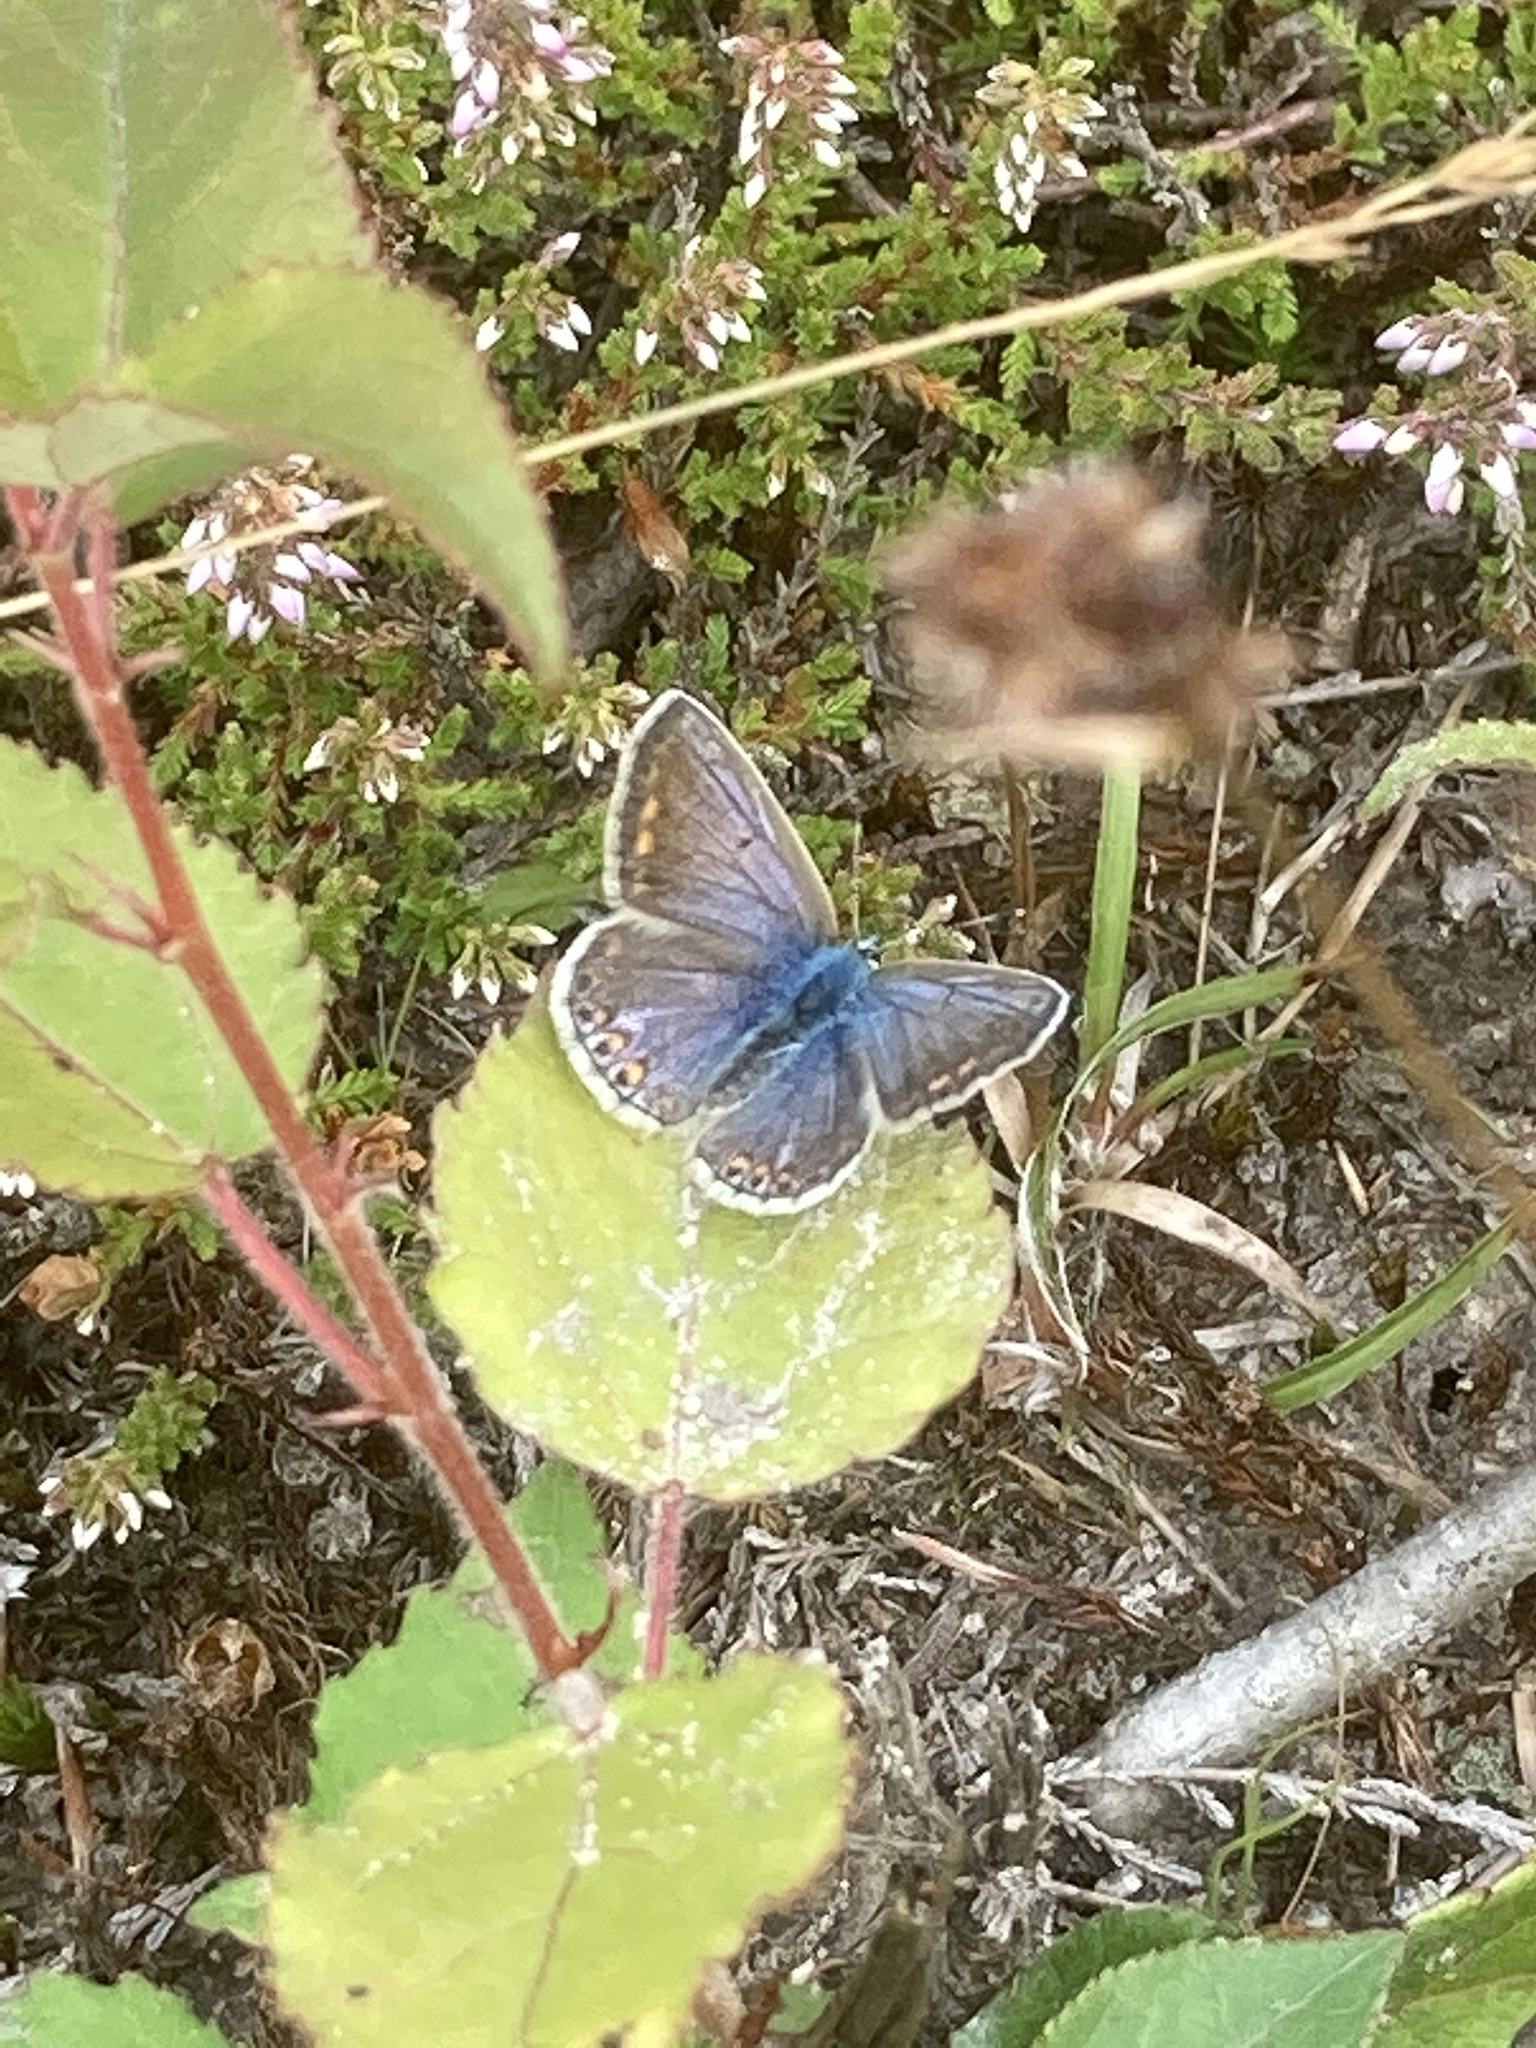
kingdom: Animalia
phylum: Arthropoda
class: Insecta
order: Lepidoptera
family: Lycaenidae
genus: Polyommatus
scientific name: Polyommatus icarus
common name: Common blue
